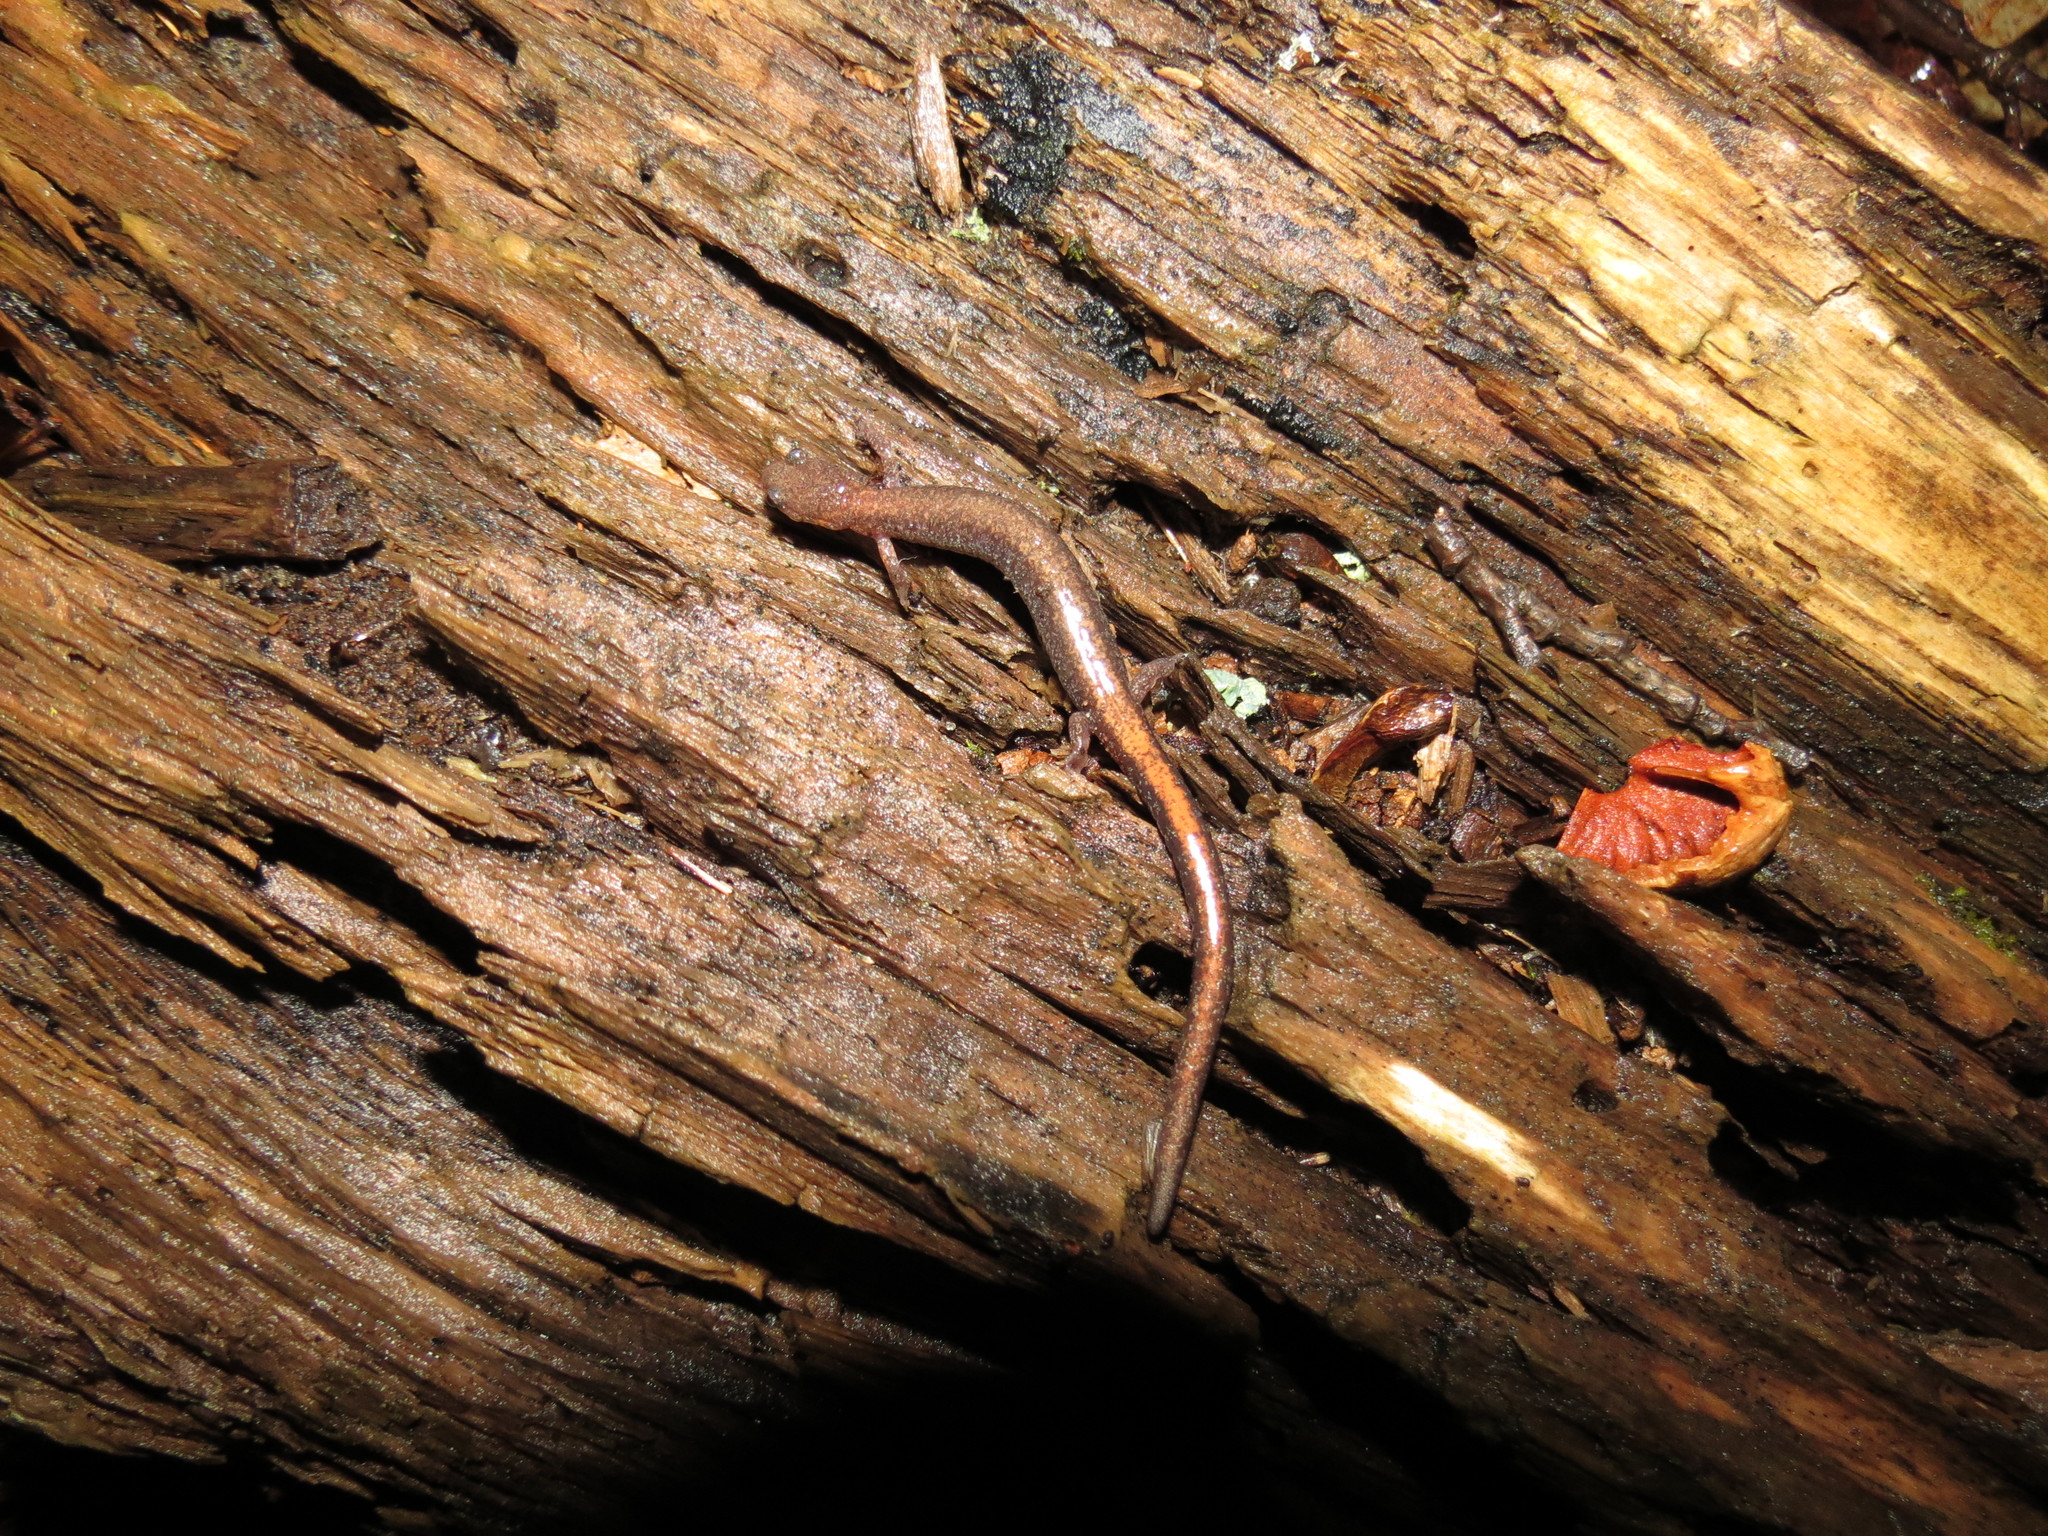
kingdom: Animalia
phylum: Chordata
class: Amphibia
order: Caudata
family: Plethodontidae
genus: Plethodon
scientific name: Plethodon cinereus
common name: Redback salamander
